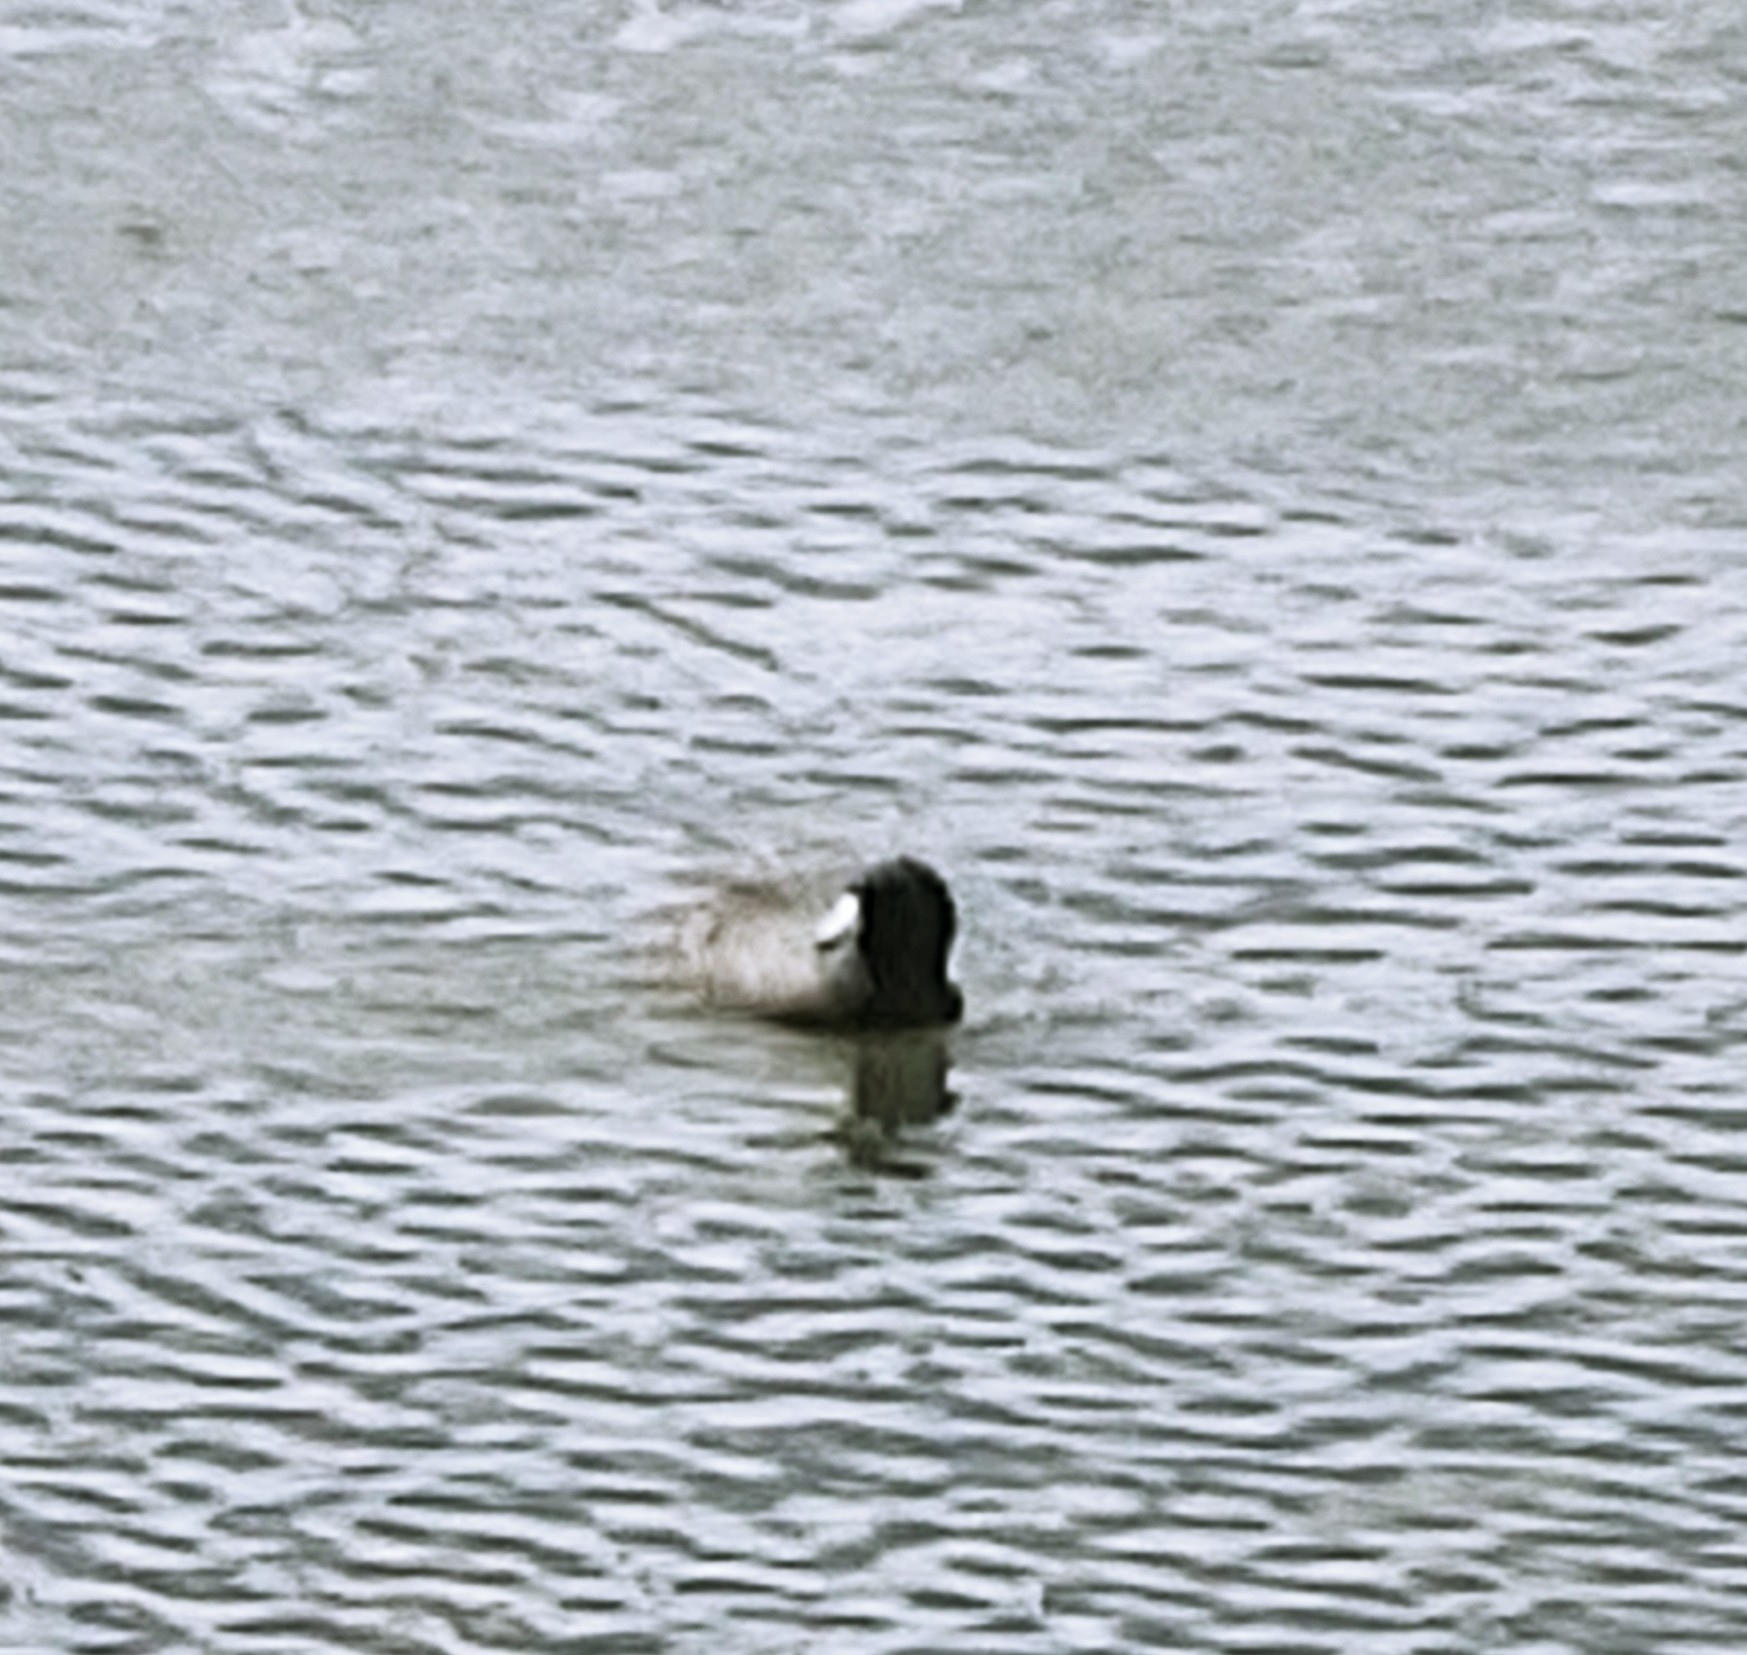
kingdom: Animalia
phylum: Chordata
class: Aves
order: Gruiformes
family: Rallidae
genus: Fulica
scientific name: Fulica americana
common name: American coot
